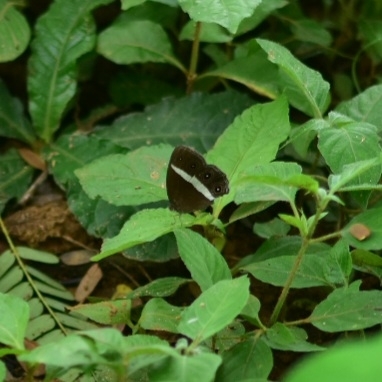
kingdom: Animalia
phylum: Arthropoda
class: Insecta
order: Lepidoptera
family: Nymphalidae
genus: Orsotriaena
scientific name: Orsotriaena medus
